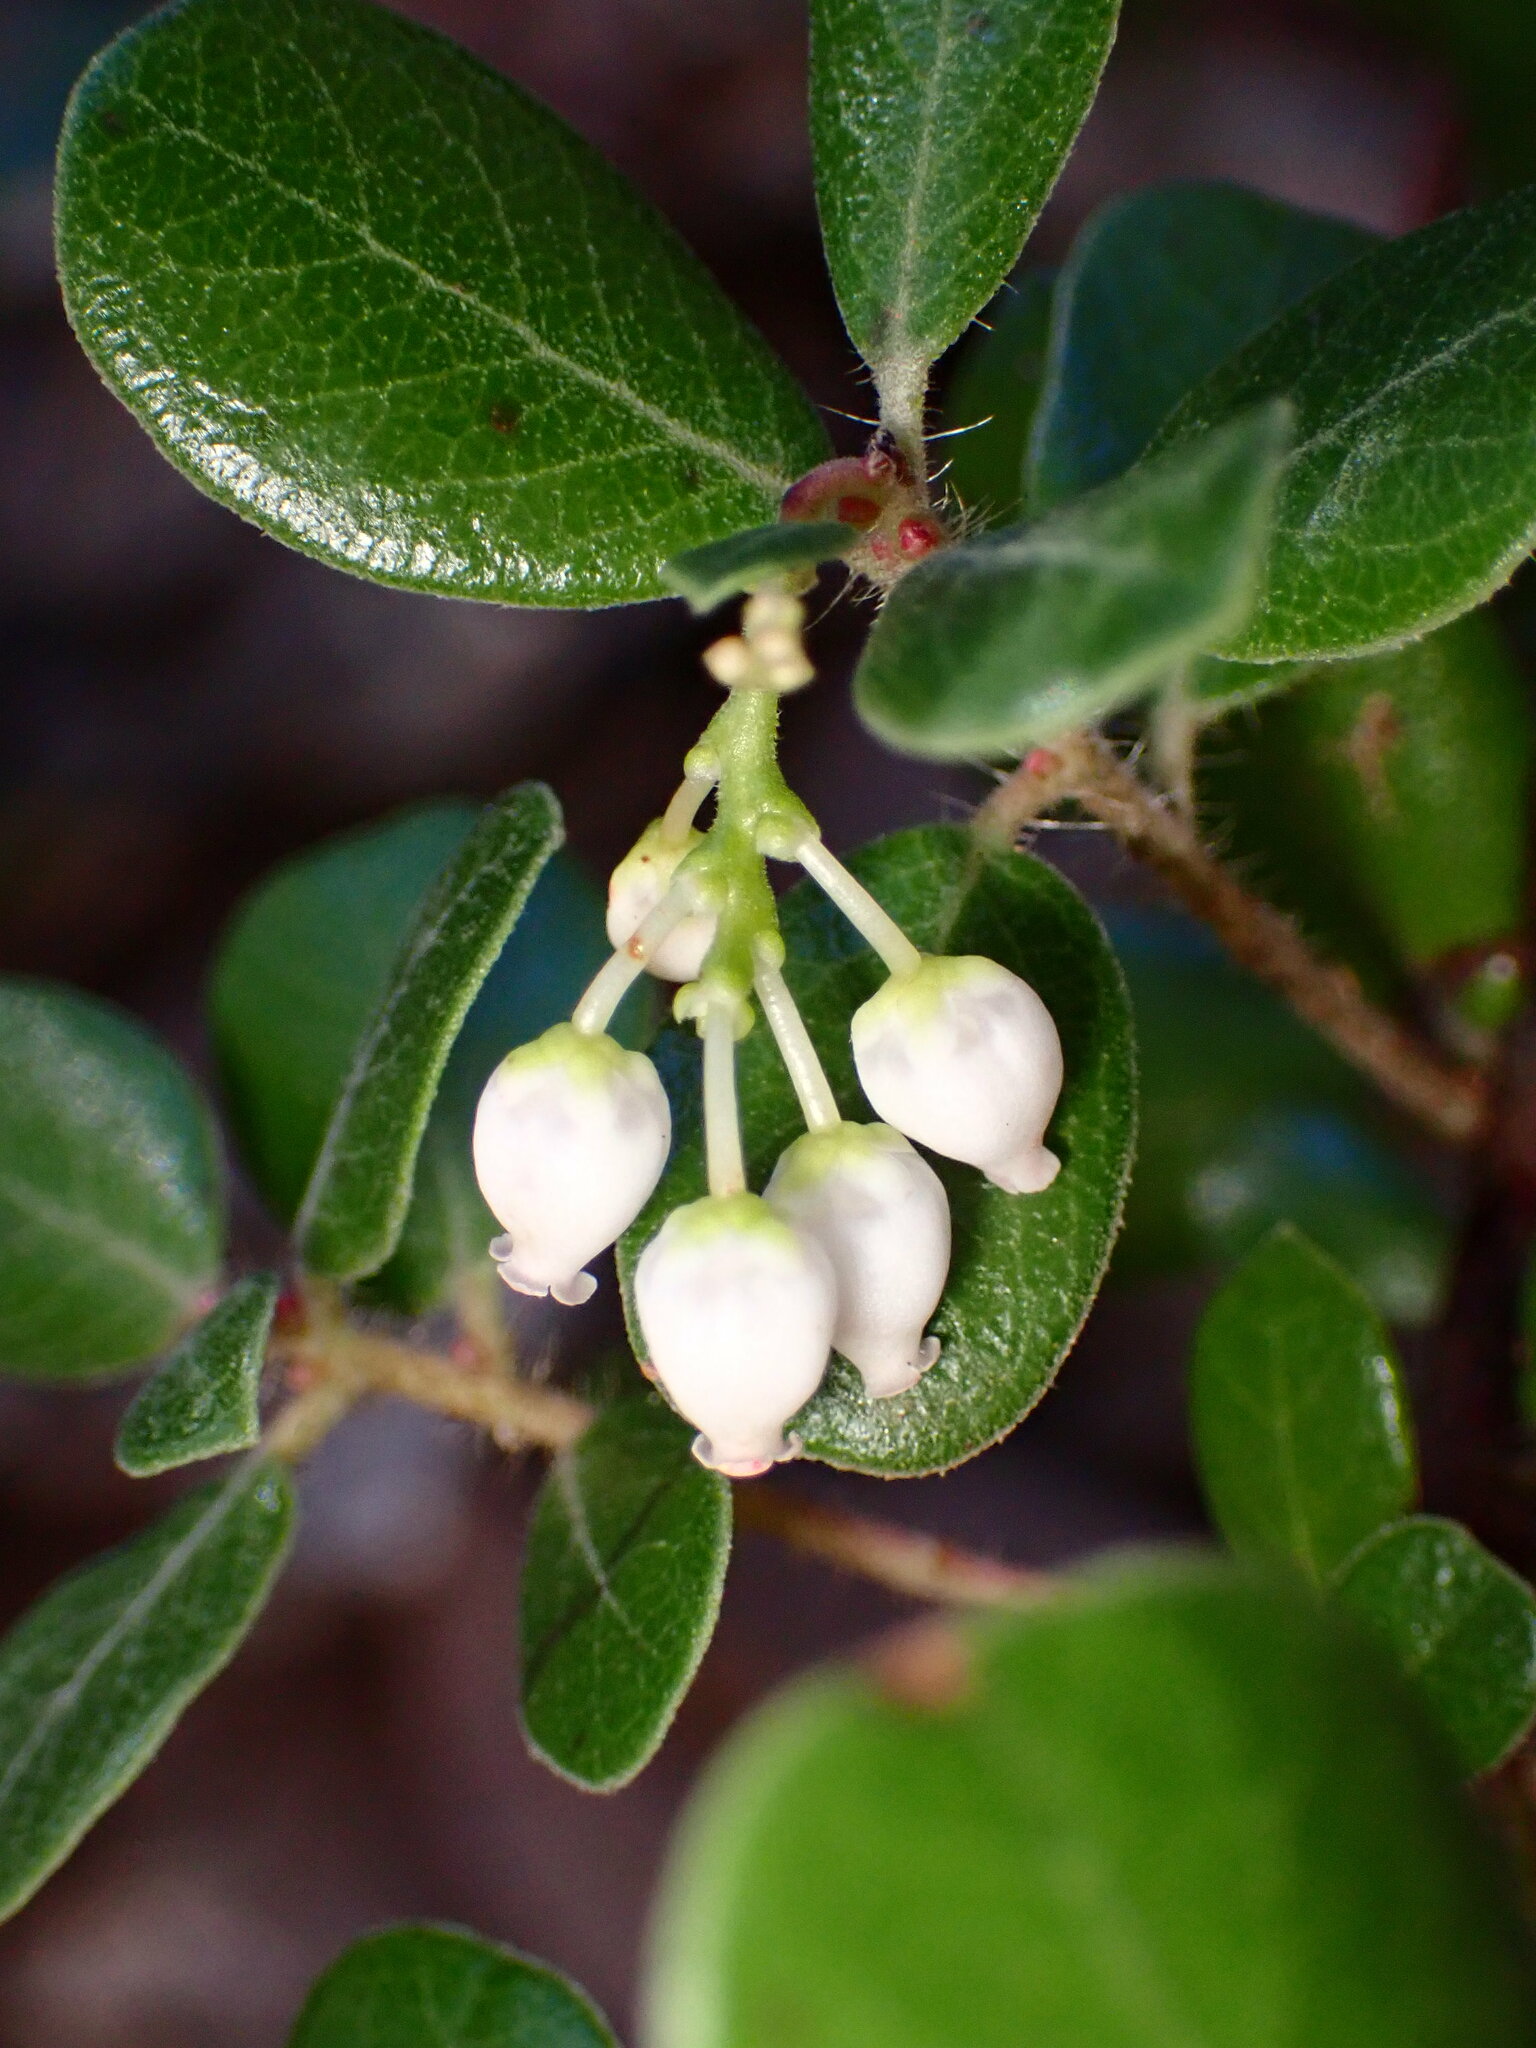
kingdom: Plantae
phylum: Tracheophyta
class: Magnoliopsida
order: Ericales
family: Ericaceae
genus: Arctostaphylos
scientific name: Arctostaphylos nummularia
